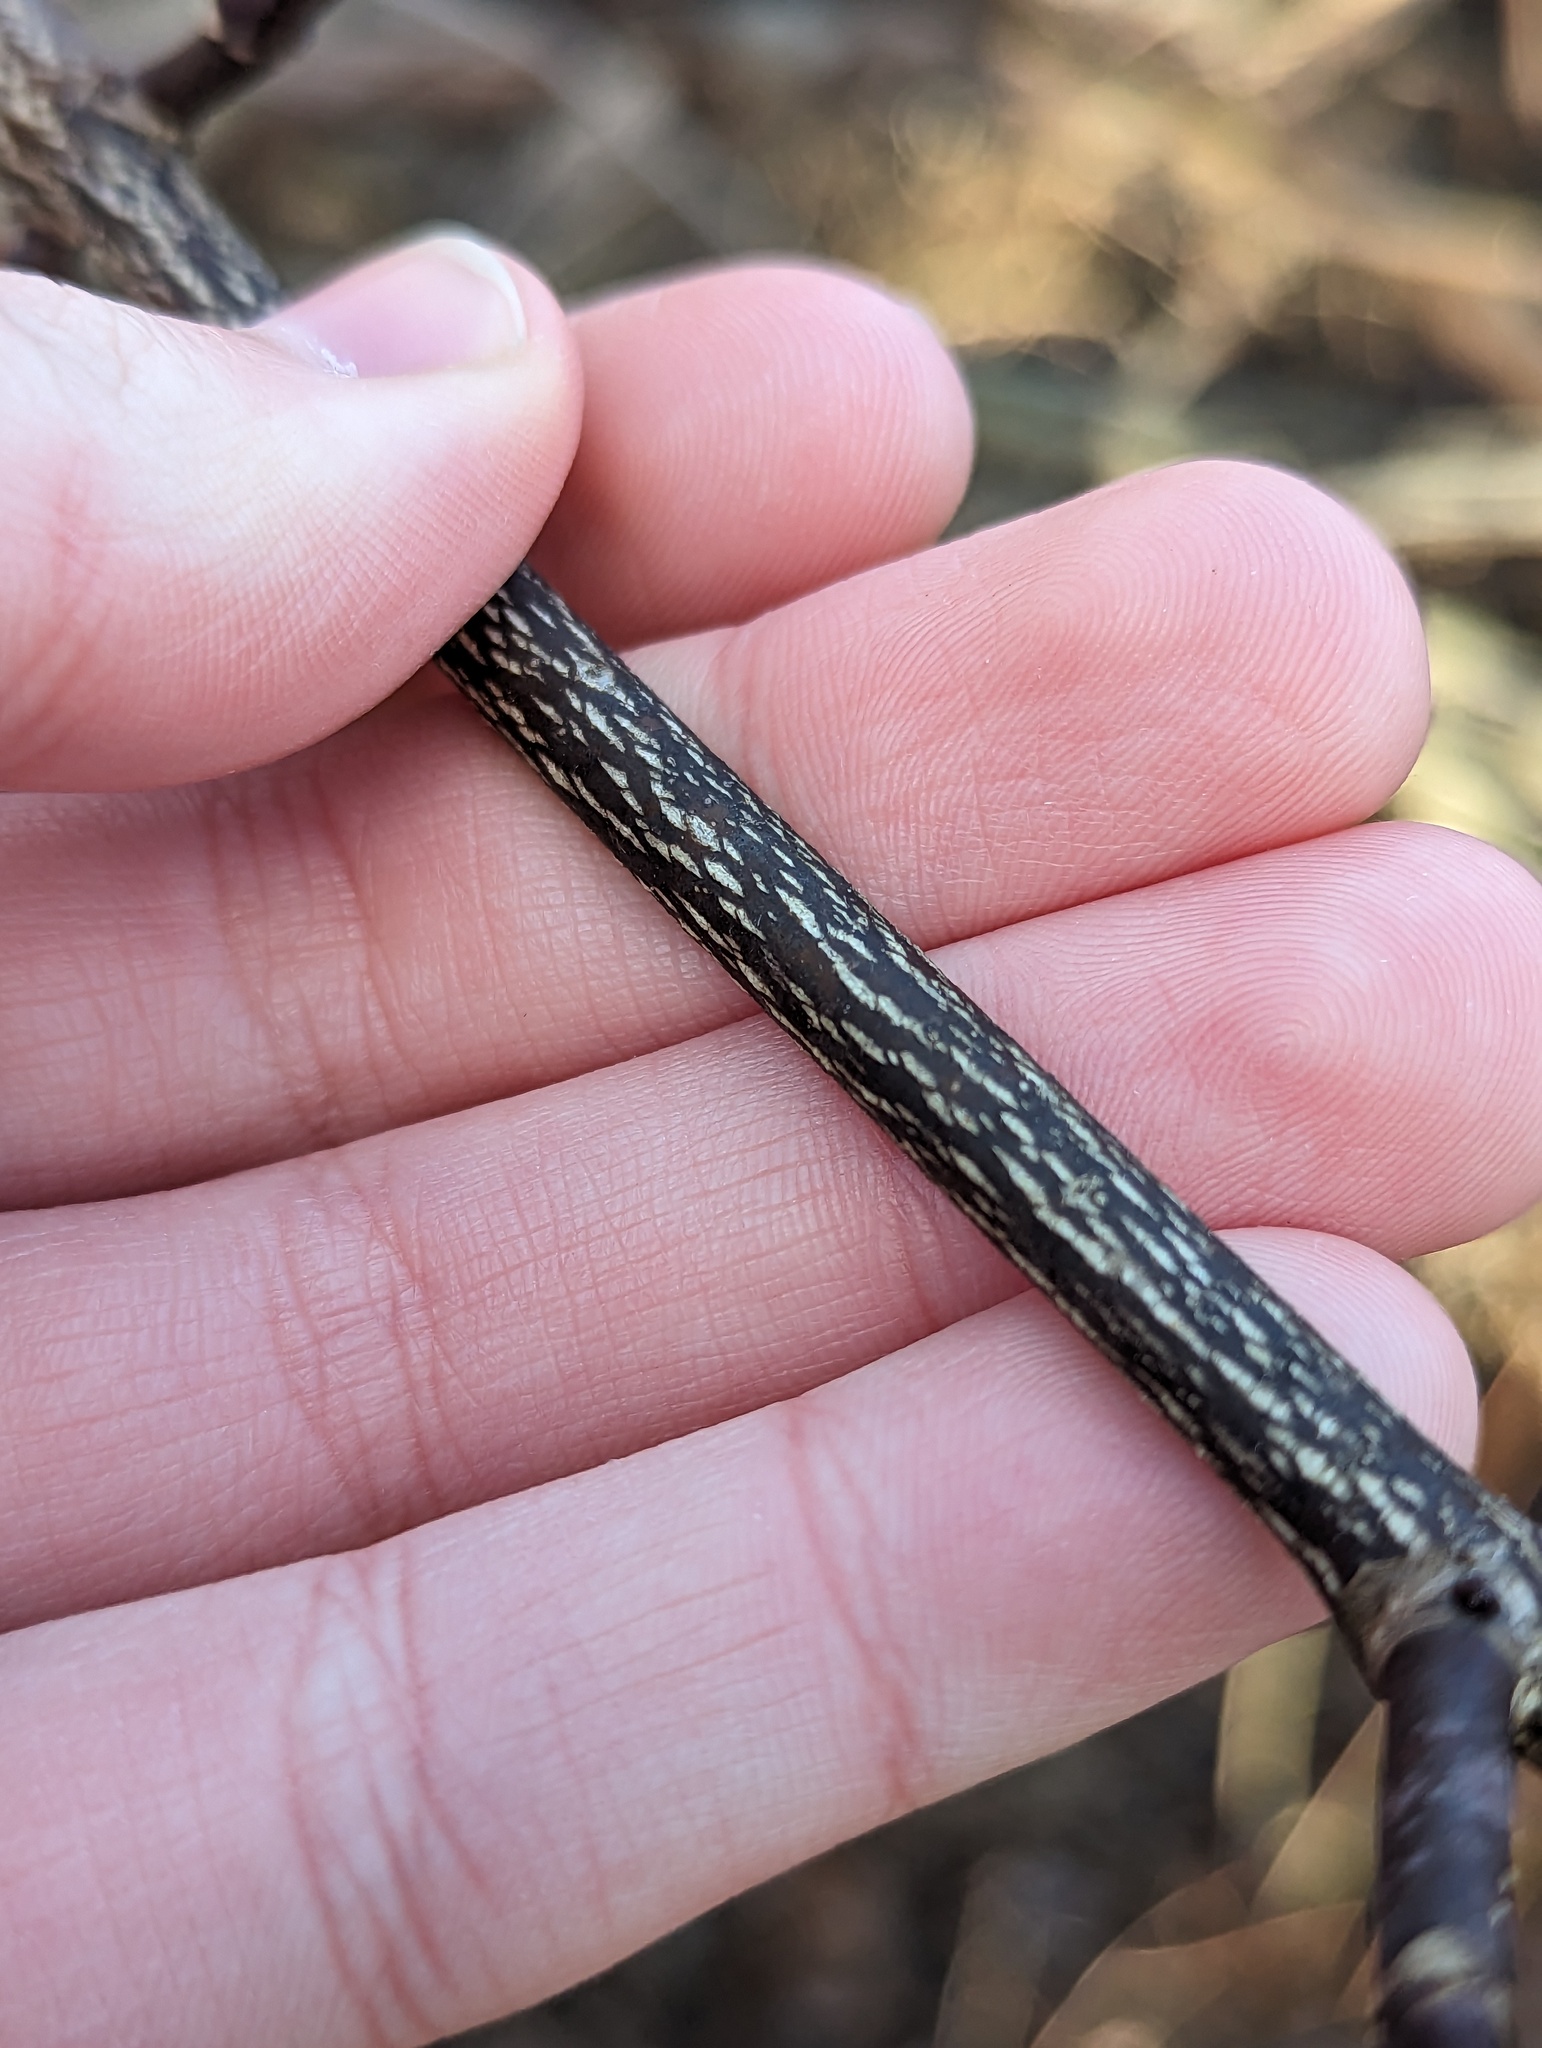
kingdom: Plantae
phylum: Tracheophyta
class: Magnoliopsida
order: Crossosomatales
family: Staphyleaceae
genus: Staphylea
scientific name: Staphylea trifolia
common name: American bladdernut
